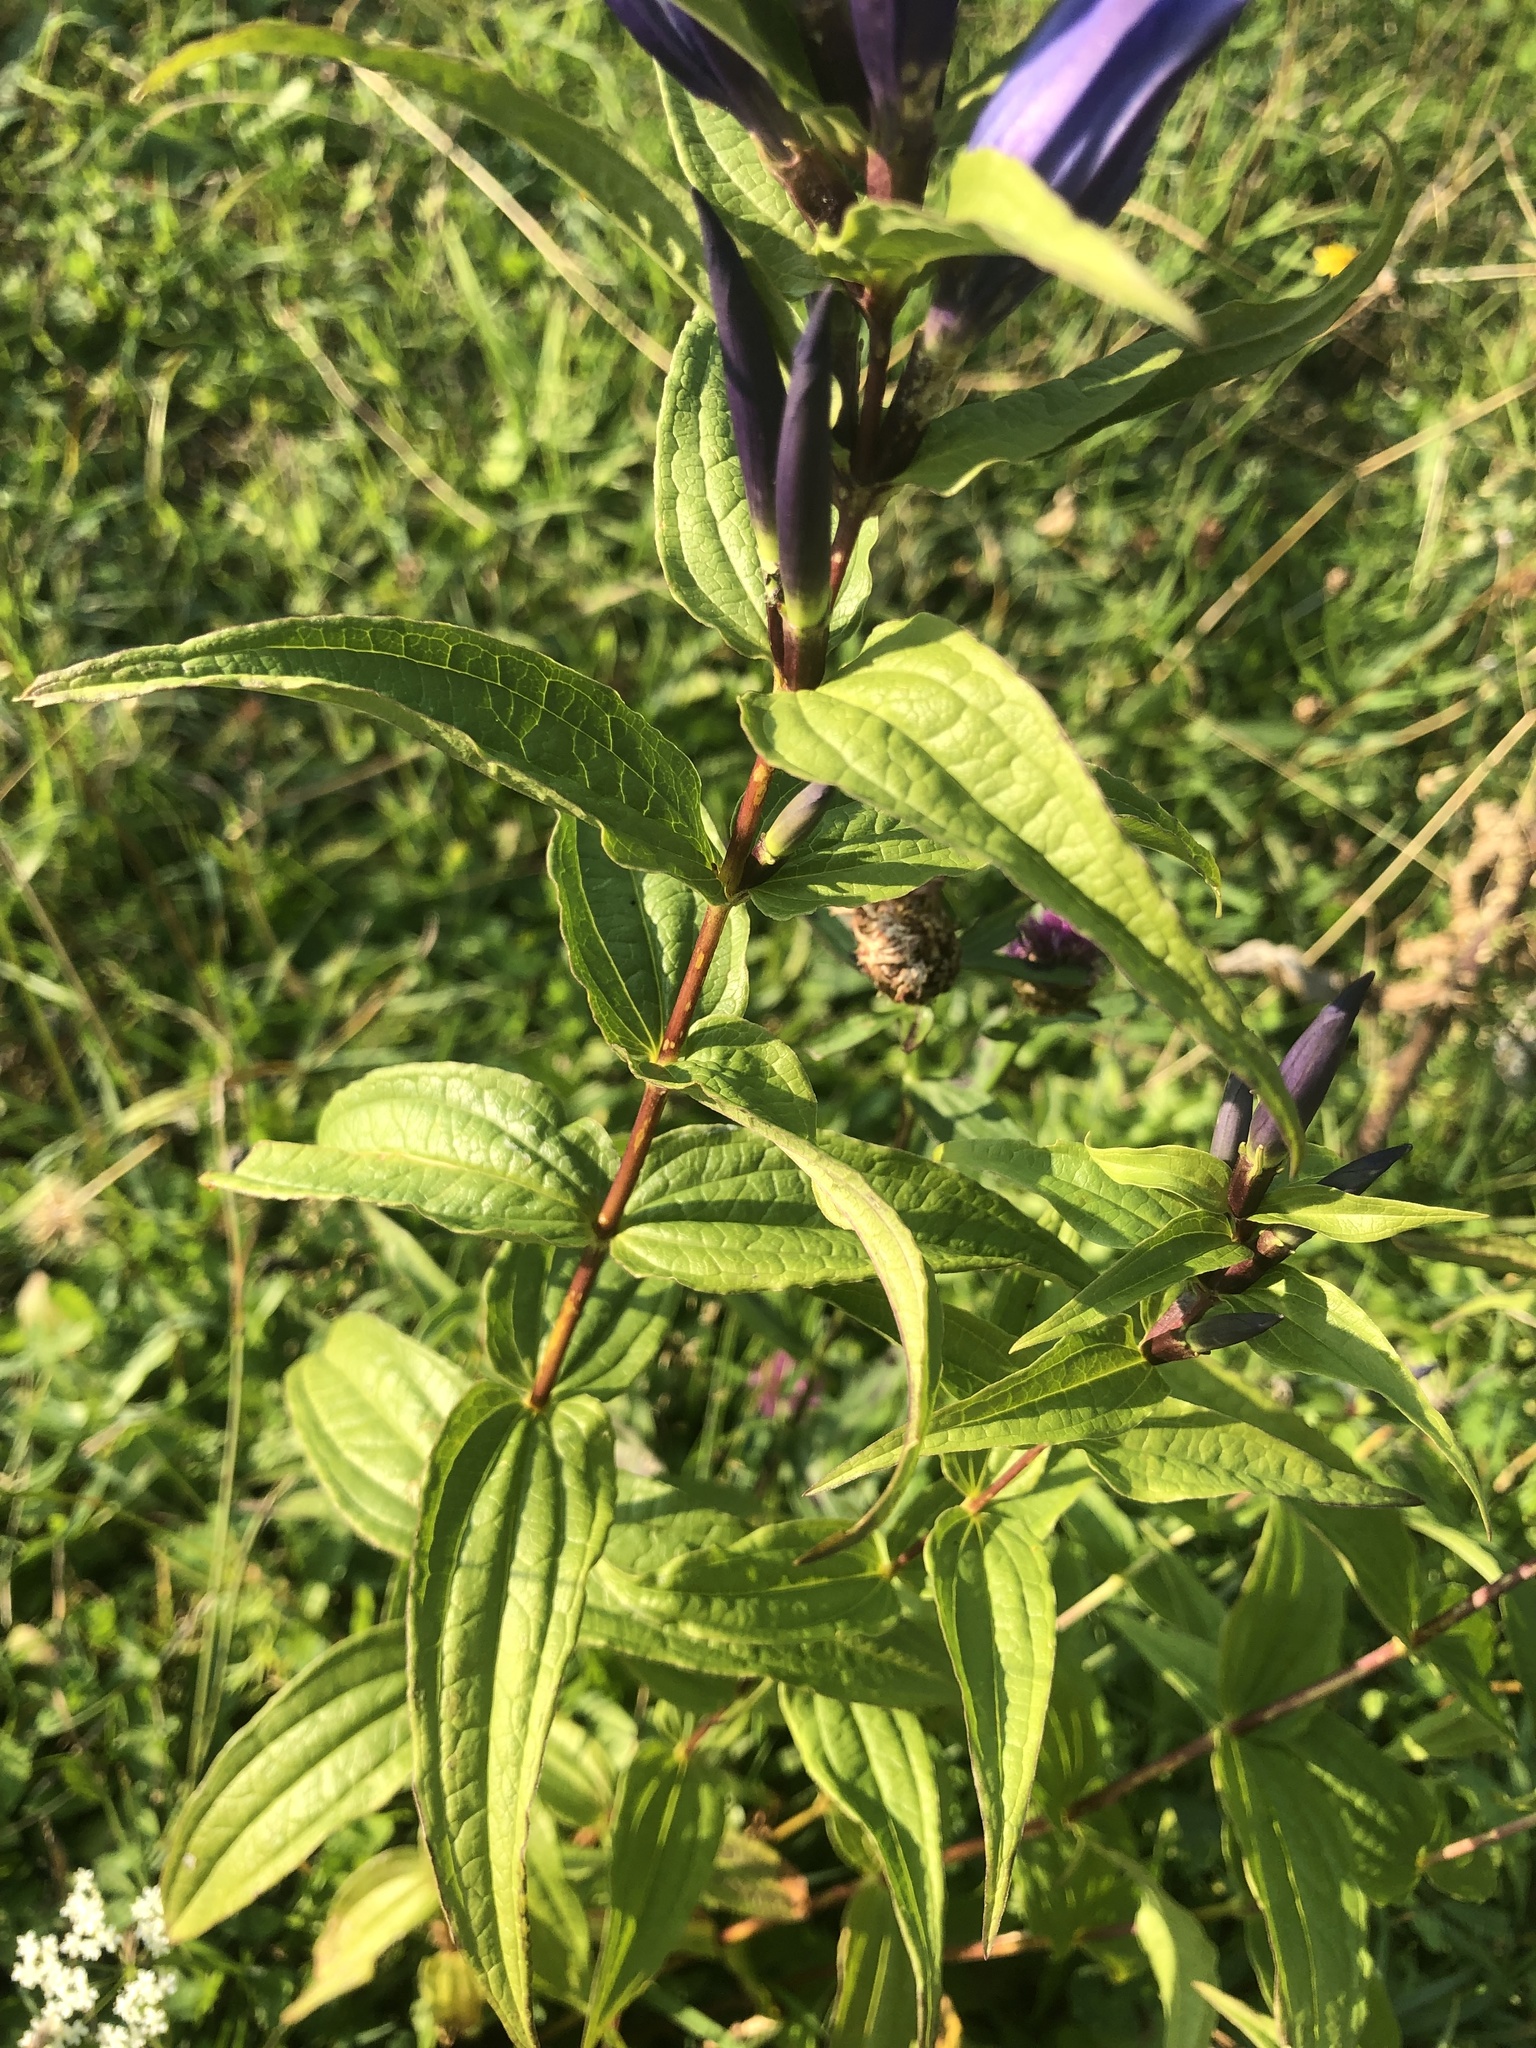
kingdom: Plantae
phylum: Tracheophyta
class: Magnoliopsida
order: Gentianales
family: Gentianaceae
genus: Gentiana
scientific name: Gentiana asclepiadea
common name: Willow gentian
